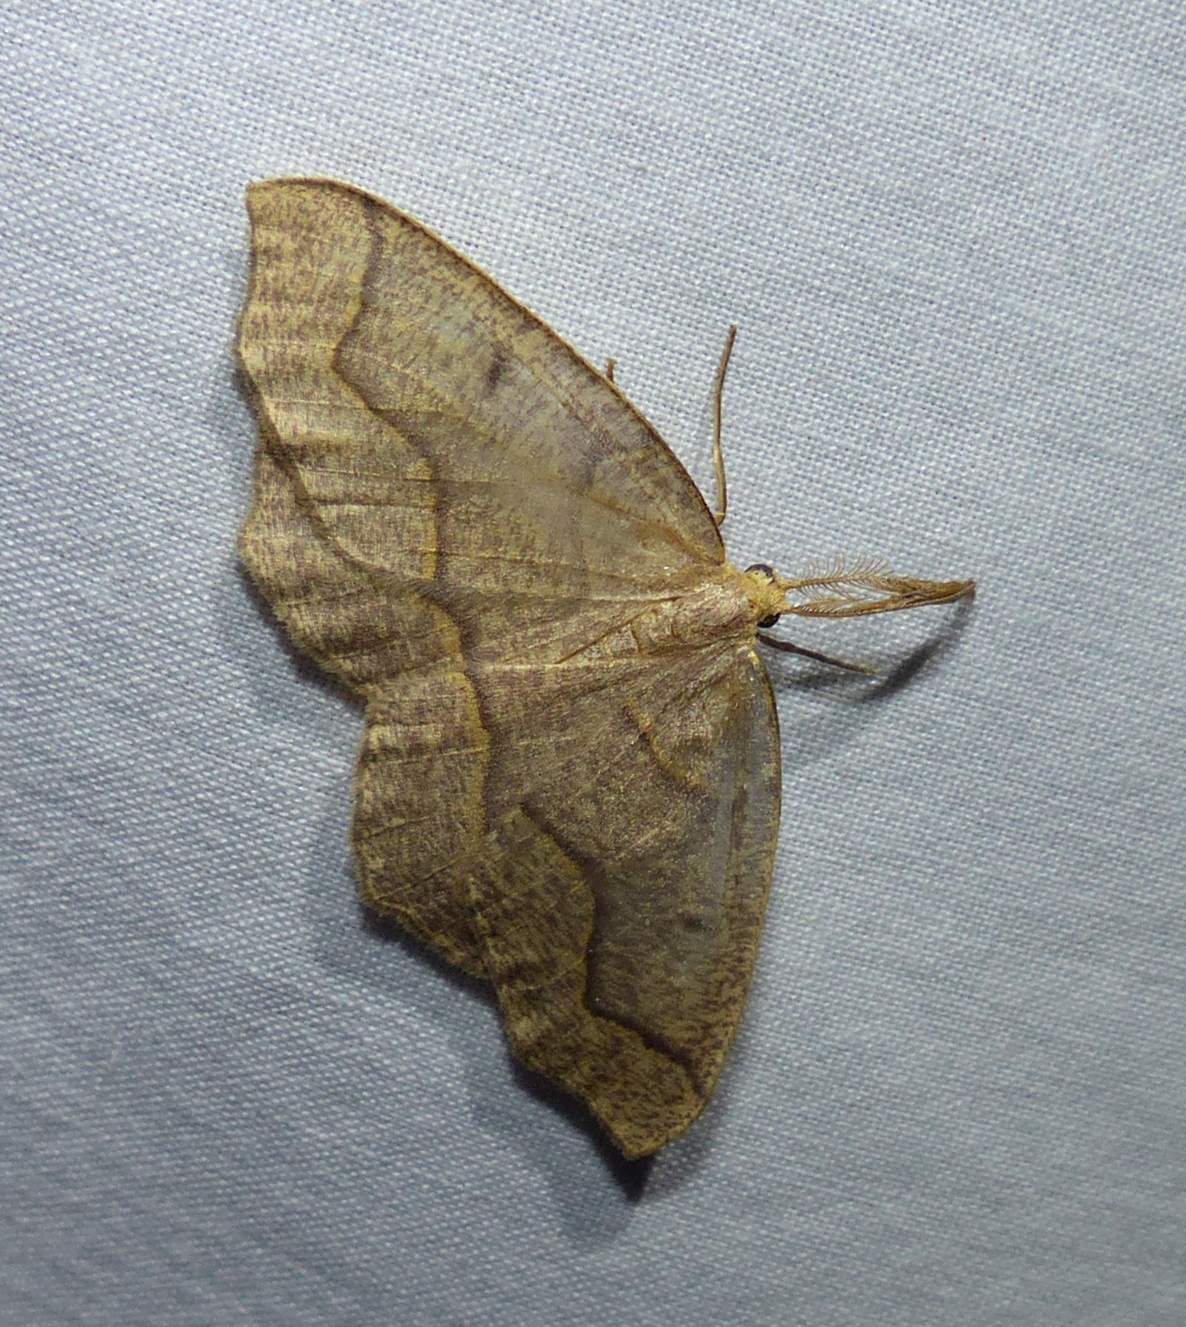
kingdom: Animalia
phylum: Arthropoda
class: Insecta
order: Lepidoptera
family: Geometridae
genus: Lambdina
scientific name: Lambdina fiscellaria
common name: Hemlock looper
